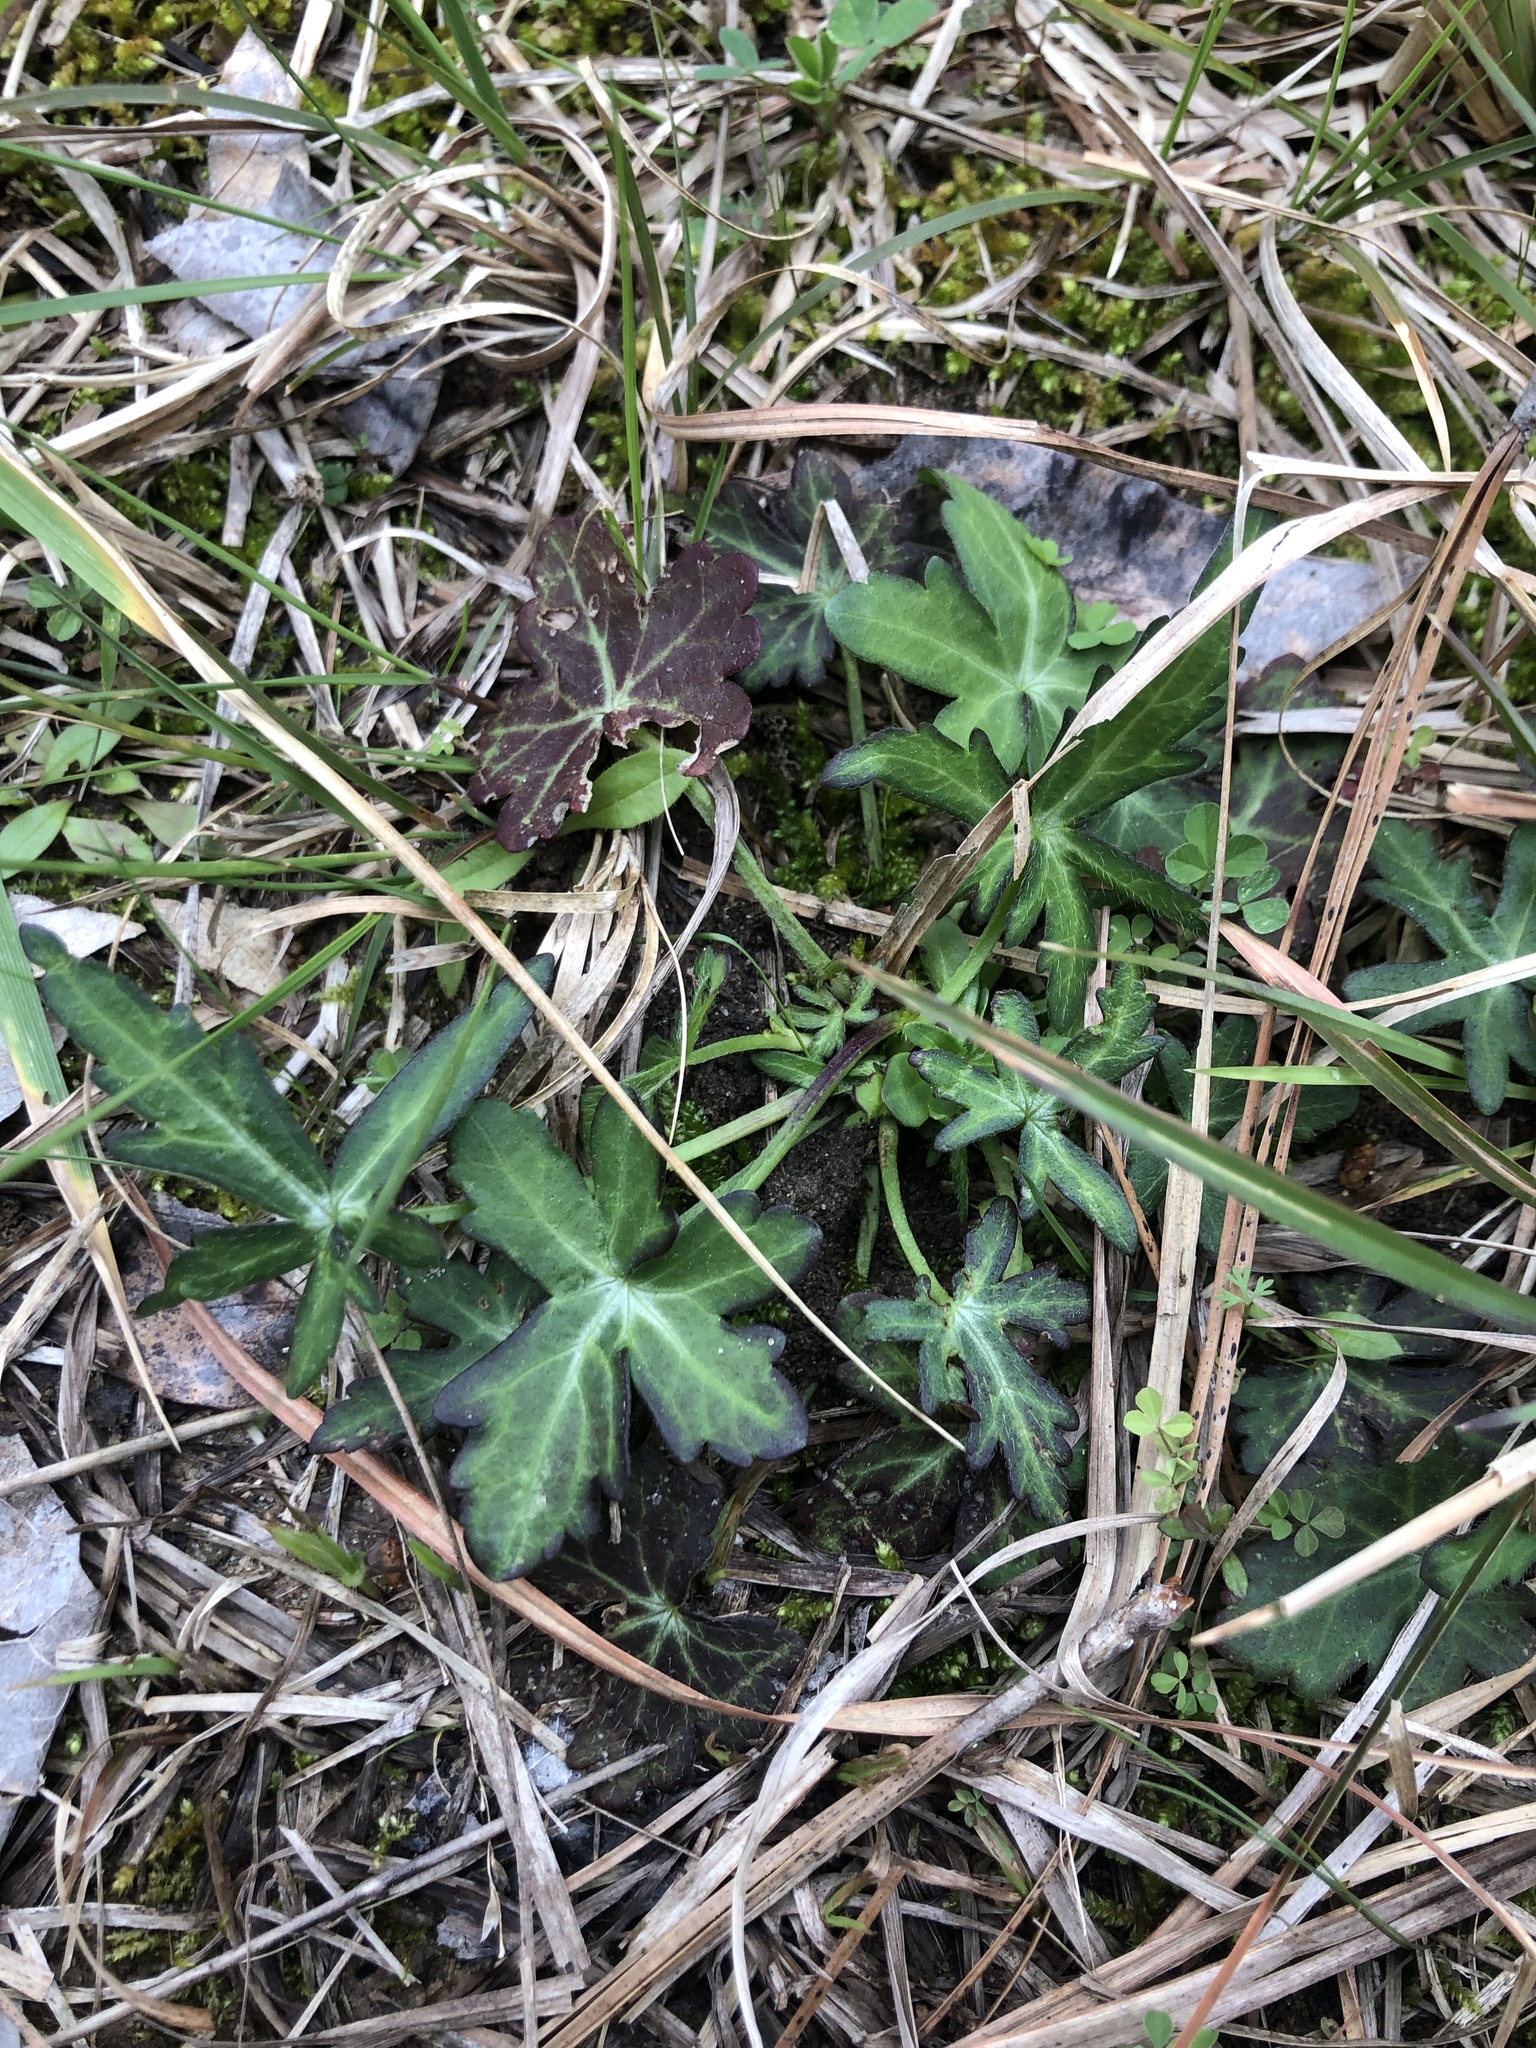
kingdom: Plantae
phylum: Tracheophyta
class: Magnoliopsida
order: Malvales
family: Malvaceae
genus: Callirhoe
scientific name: Callirhoe papaver
